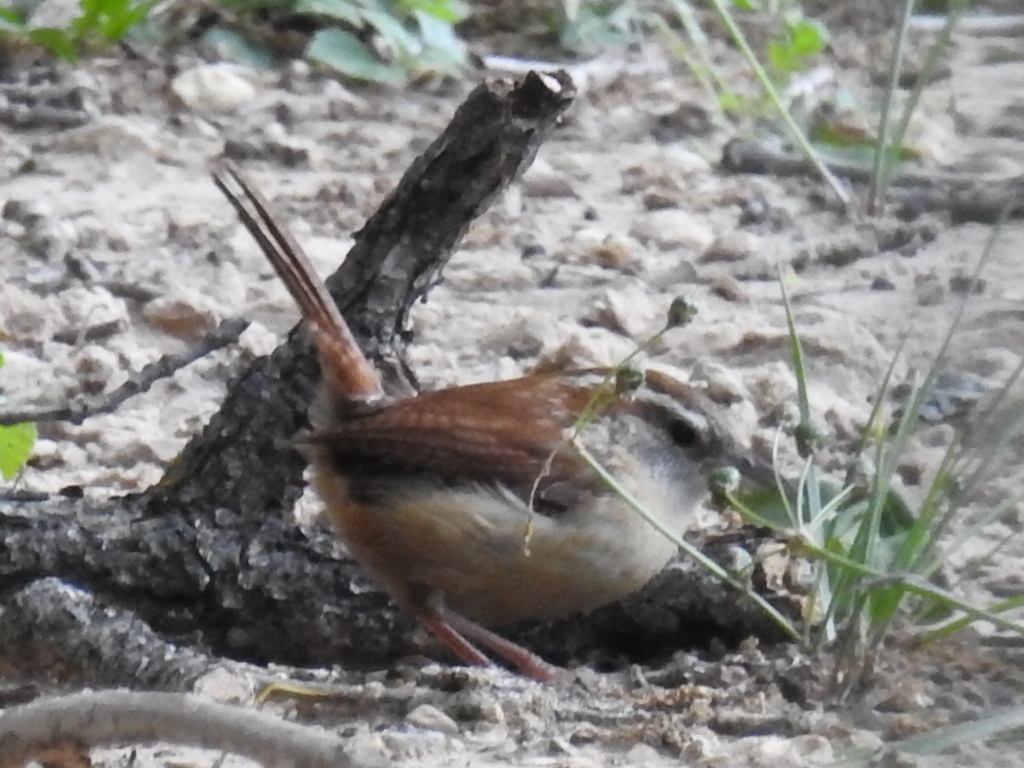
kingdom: Animalia
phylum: Chordata
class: Aves
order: Passeriformes
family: Troglodytidae
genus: Thryothorus
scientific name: Thryothorus ludovicianus
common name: Carolina wren
